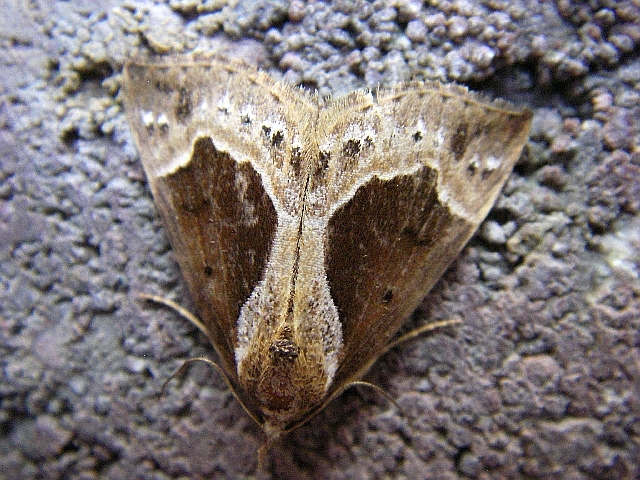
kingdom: Animalia
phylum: Arthropoda
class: Insecta
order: Lepidoptera
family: Erebidae
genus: Hypena
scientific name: Hypena crassalis
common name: Beautiful snout
